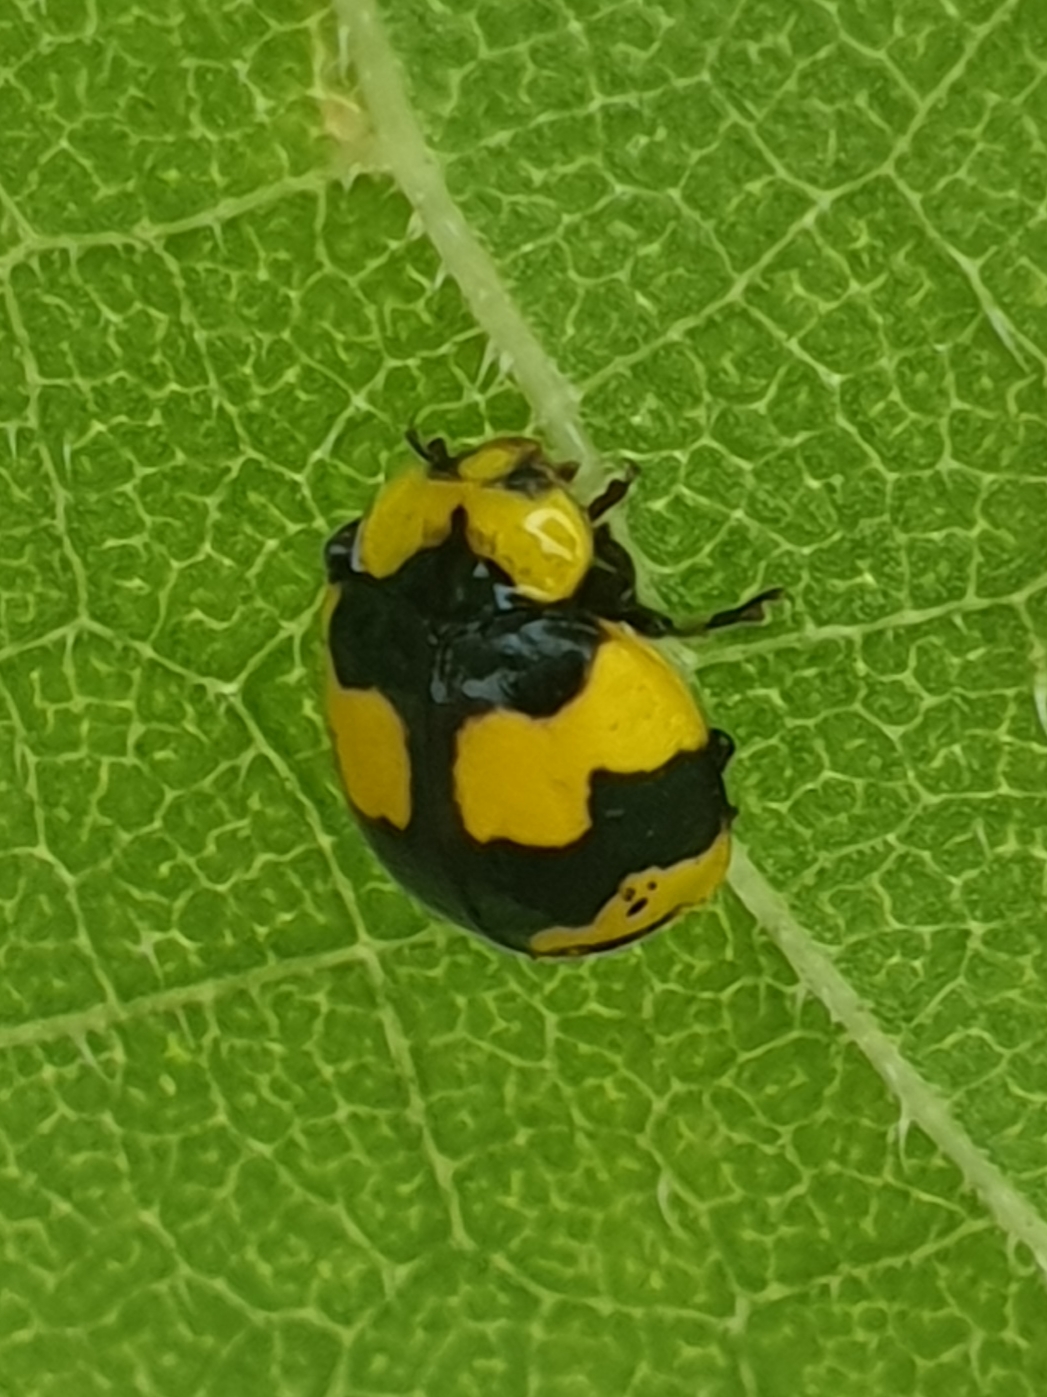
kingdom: Animalia
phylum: Arthropoda
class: Insecta
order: Coleoptera
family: Coccinellidae
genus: Illeis
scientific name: Illeis galbula
